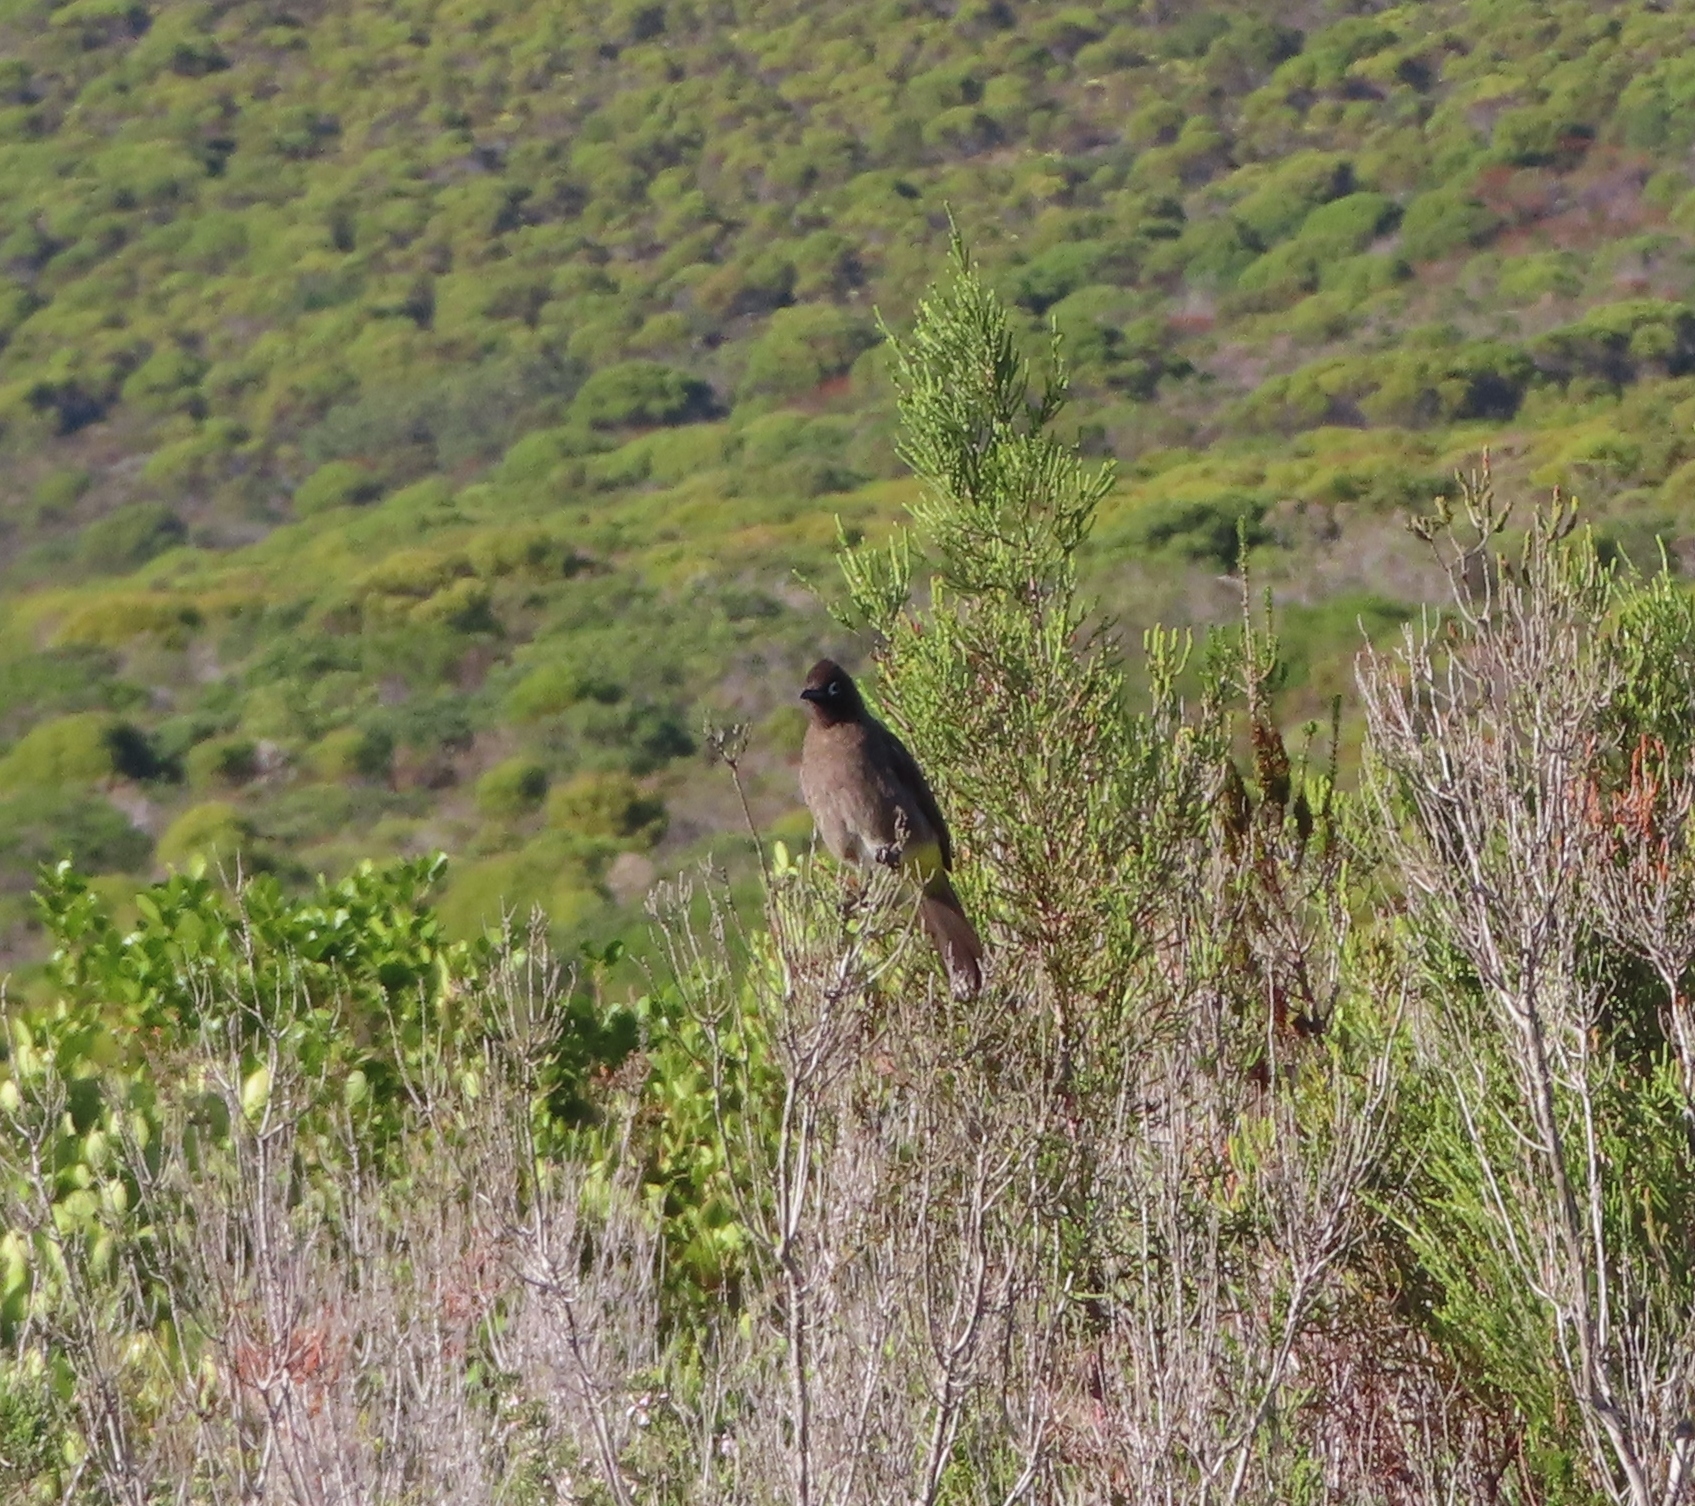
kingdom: Animalia
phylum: Chordata
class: Aves
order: Passeriformes
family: Pycnonotidae
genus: Pycnonotus
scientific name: Pycnonotus capensis
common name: Cape bulbul
